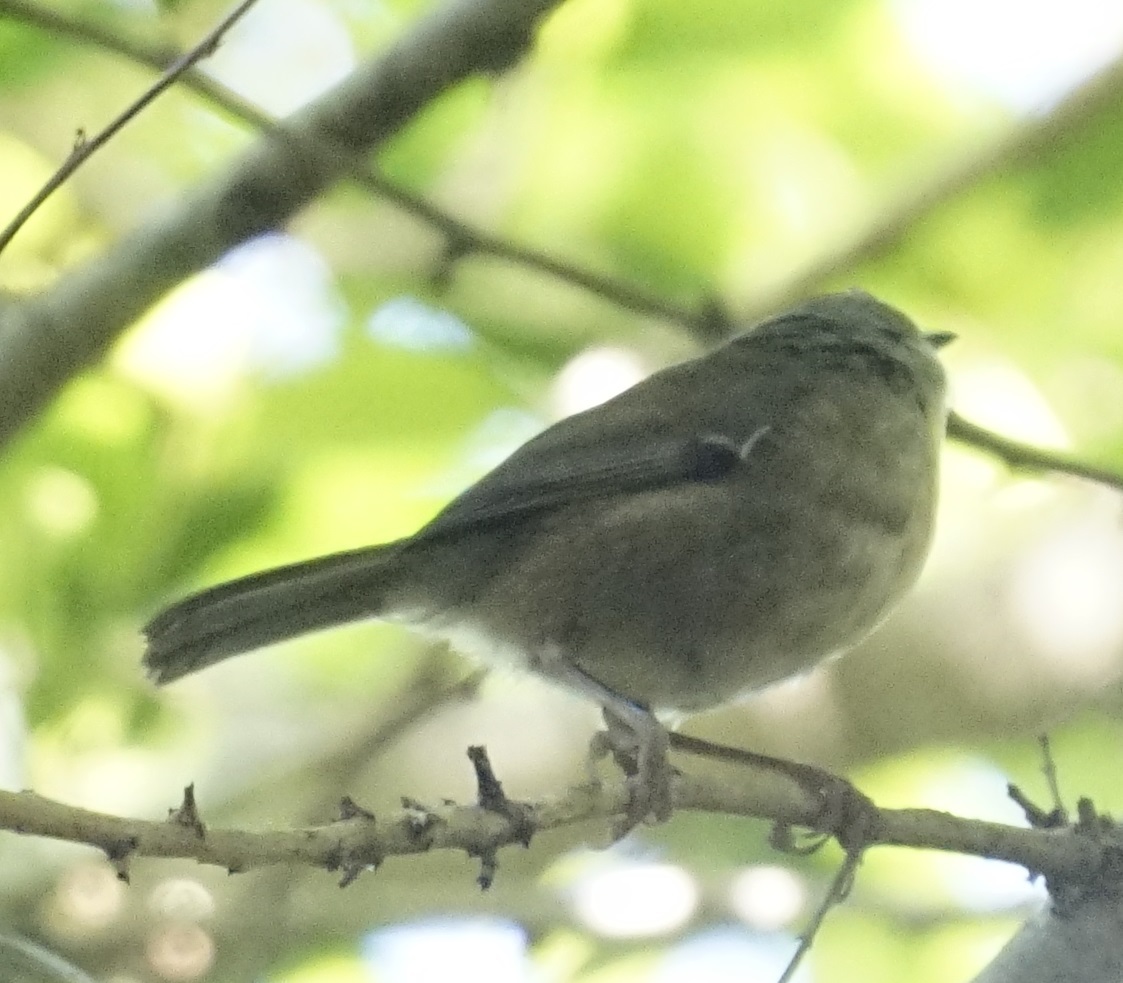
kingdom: Animalia
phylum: Chordata
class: Aves
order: Passeriformes
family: Acanthizidae
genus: Sericornis
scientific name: Sericornis frontalis
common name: White-browed scrubwren
